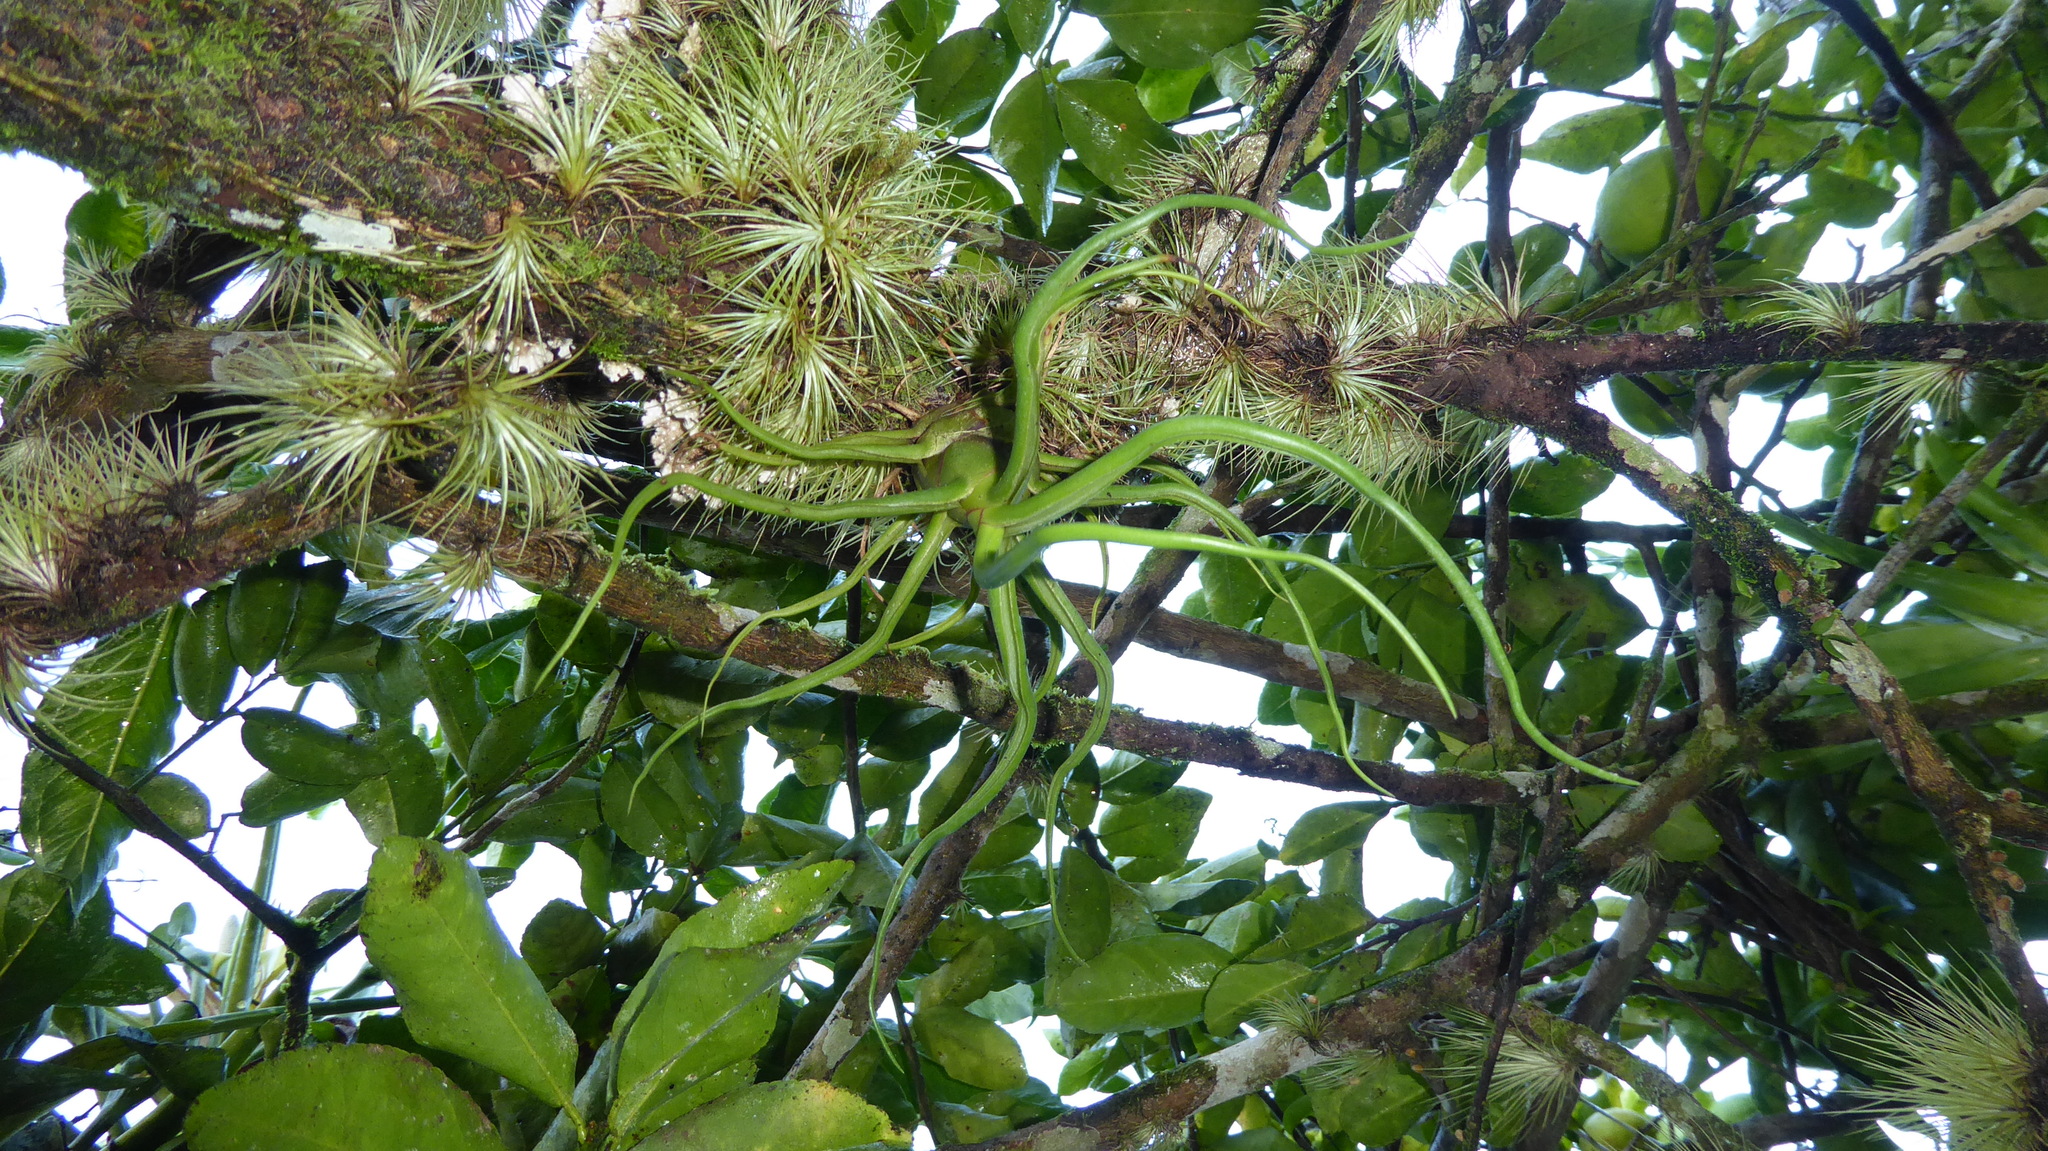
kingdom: Plantae
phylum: Tracheophyta
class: Liliopsida
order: Poales
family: Bromeliaceae
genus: Tillandsia
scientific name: Tillandsia bulbosa
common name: Bulbous airplant
